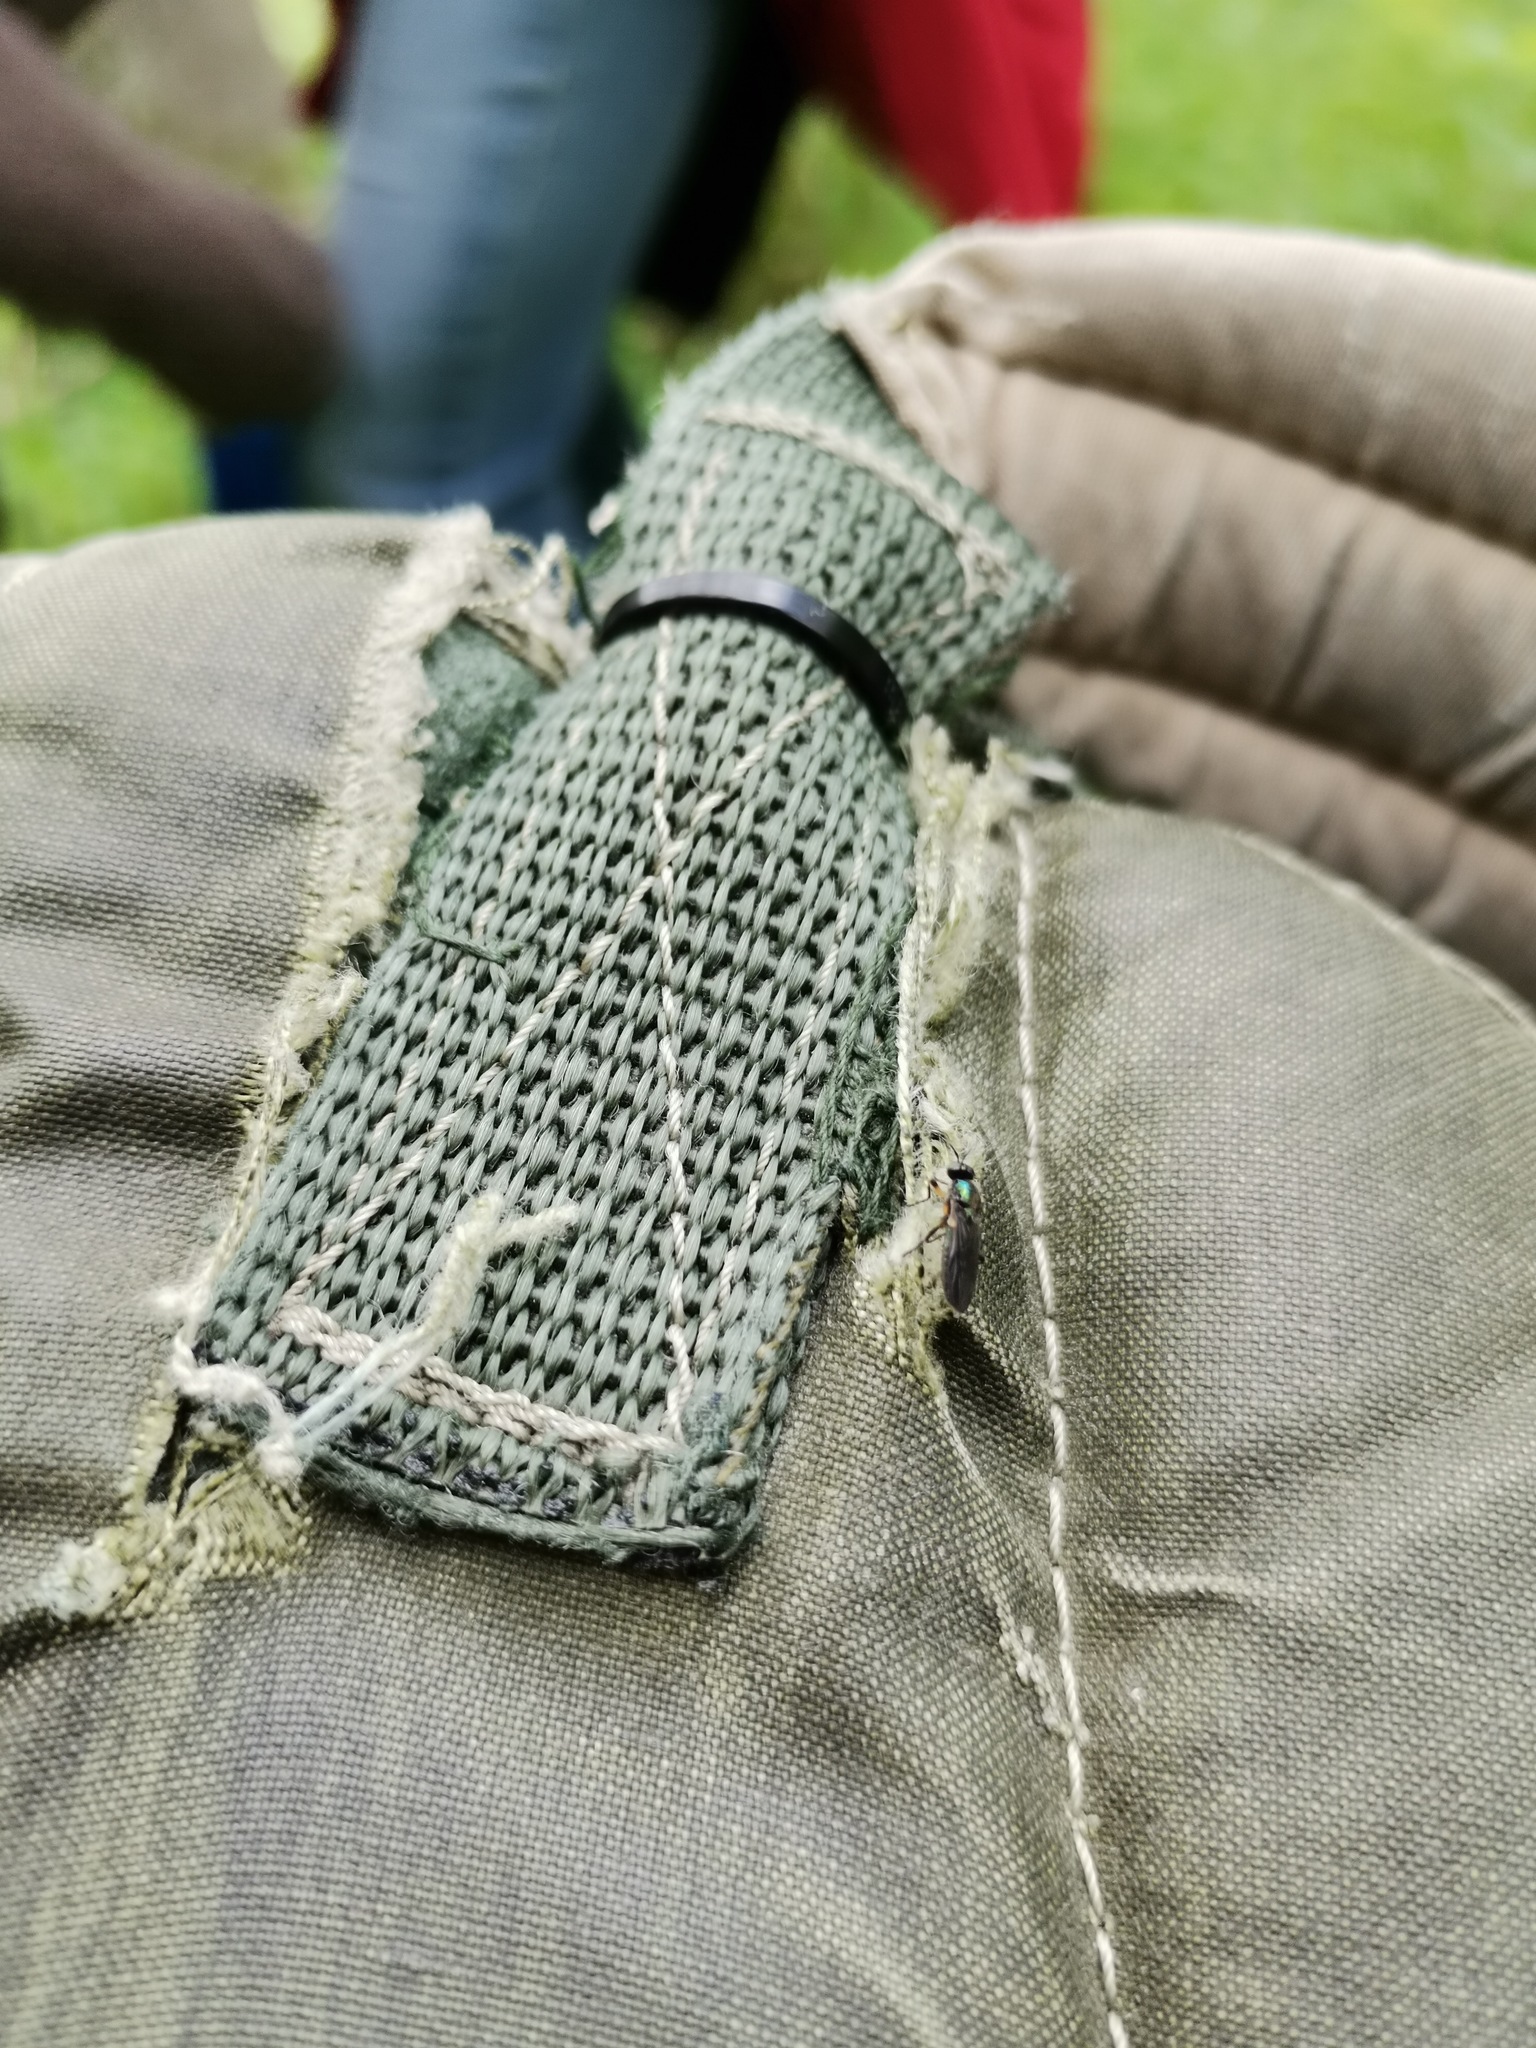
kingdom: Animalia
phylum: Arthropoda
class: Insecta
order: Diptera
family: Stratiomyidae
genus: Actina
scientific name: Actina chalybea
